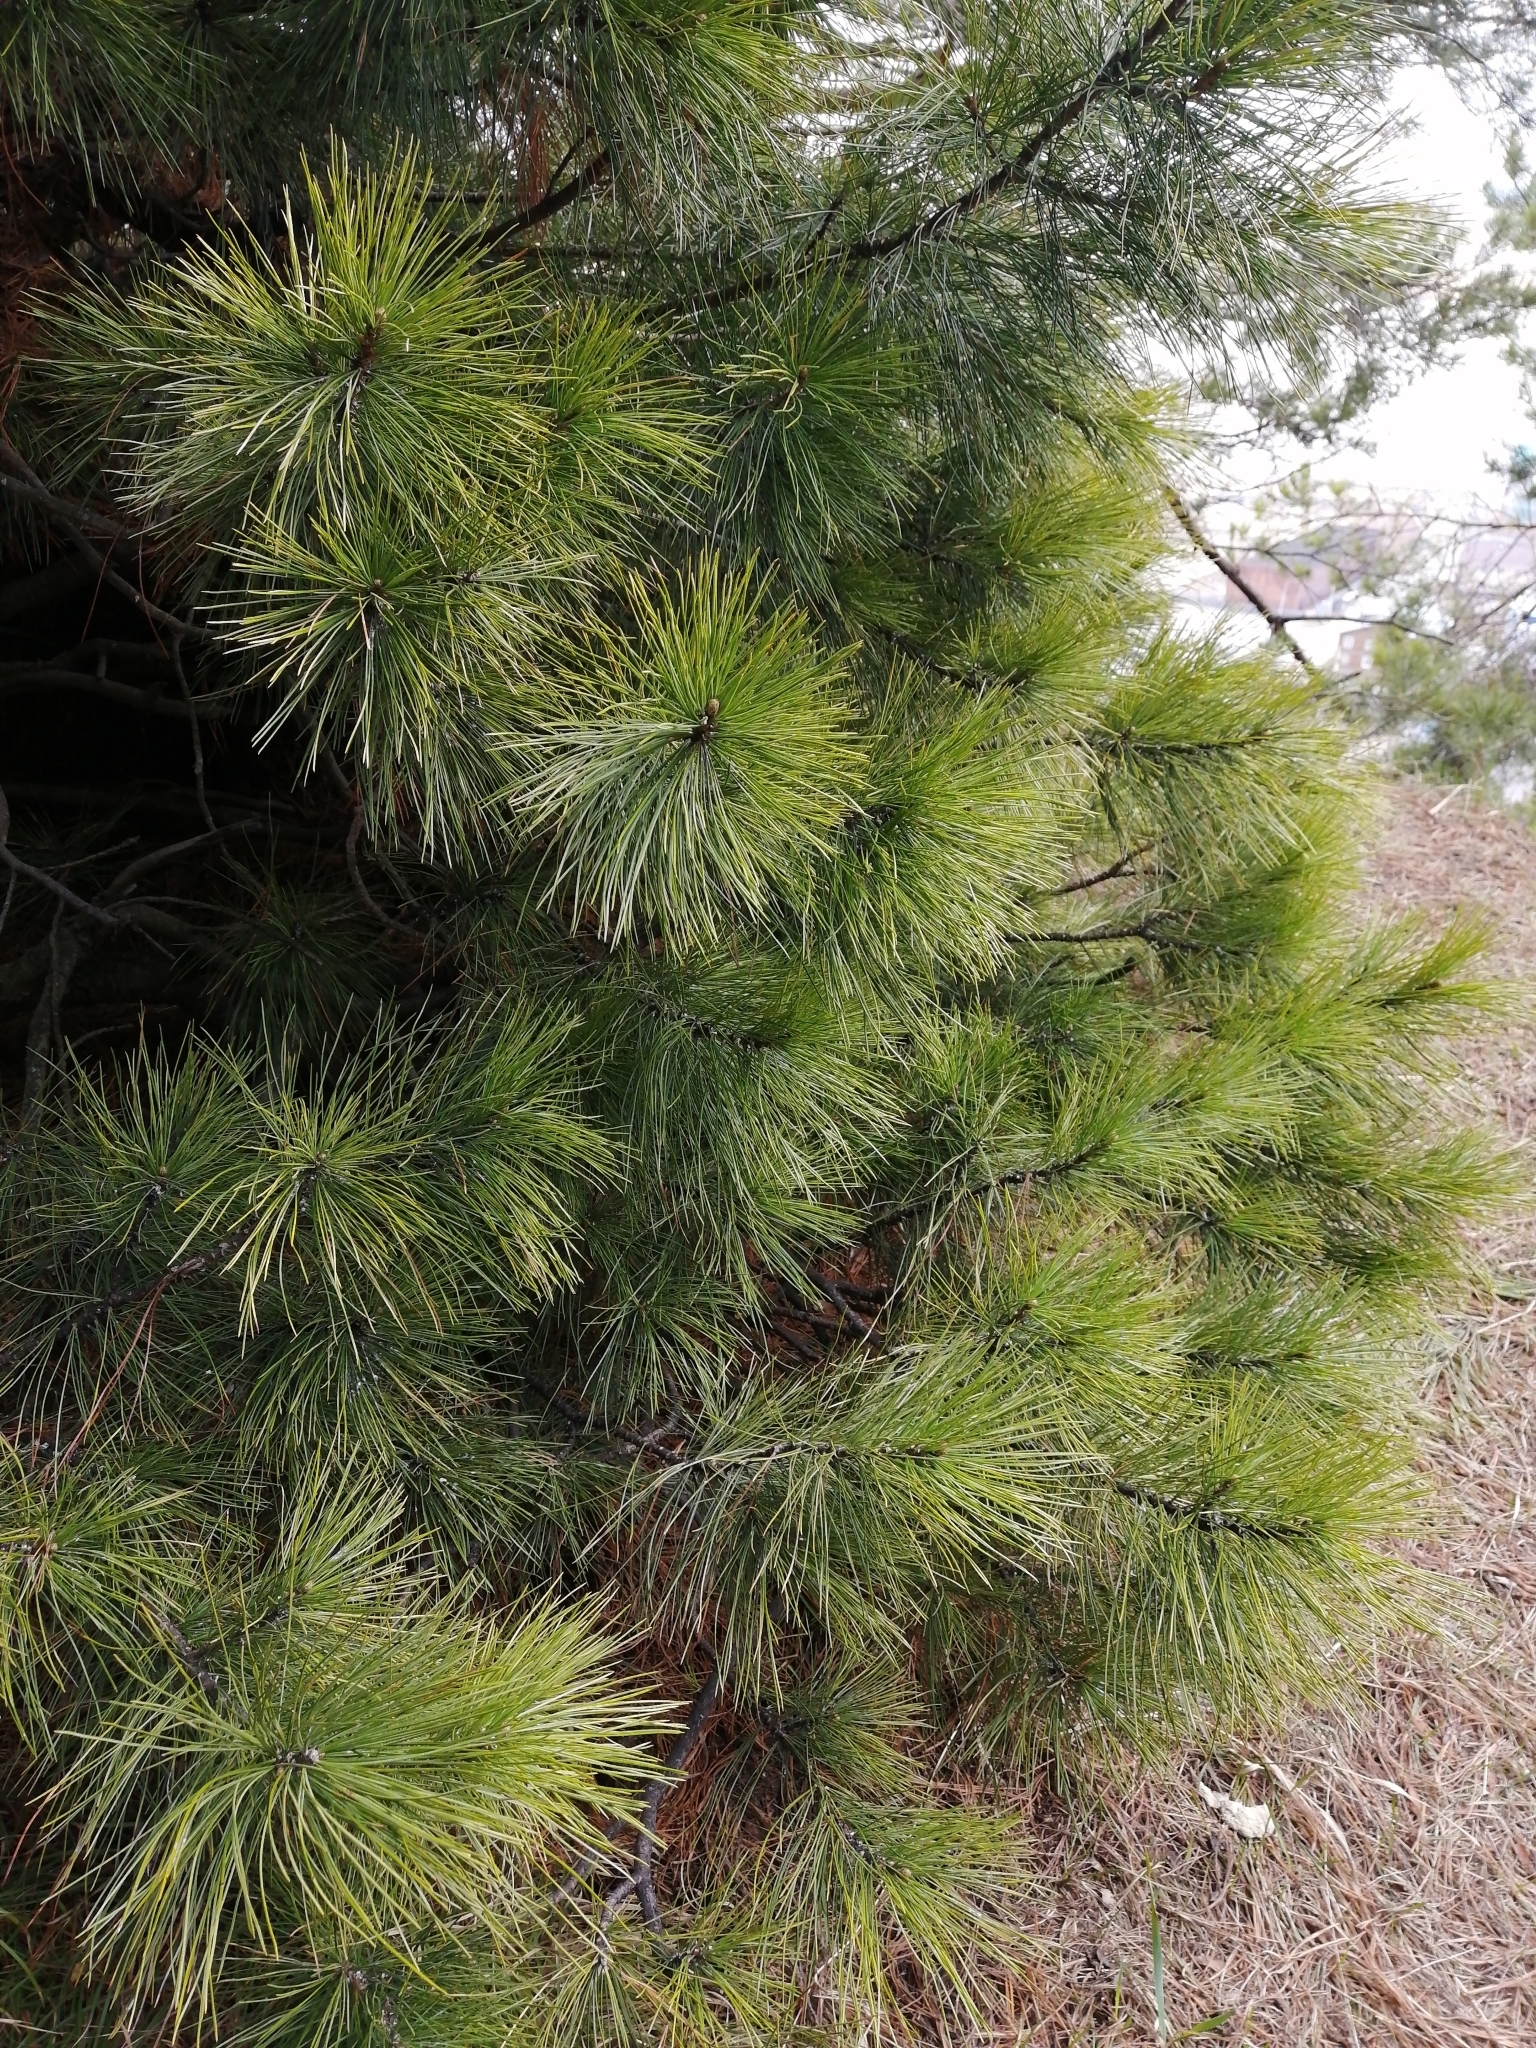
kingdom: Plantae
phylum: Tracheophyta
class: Pinopsida
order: Pinales
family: Pinaceae
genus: Pinus
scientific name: Pinus sibirica
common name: Siberian pine
